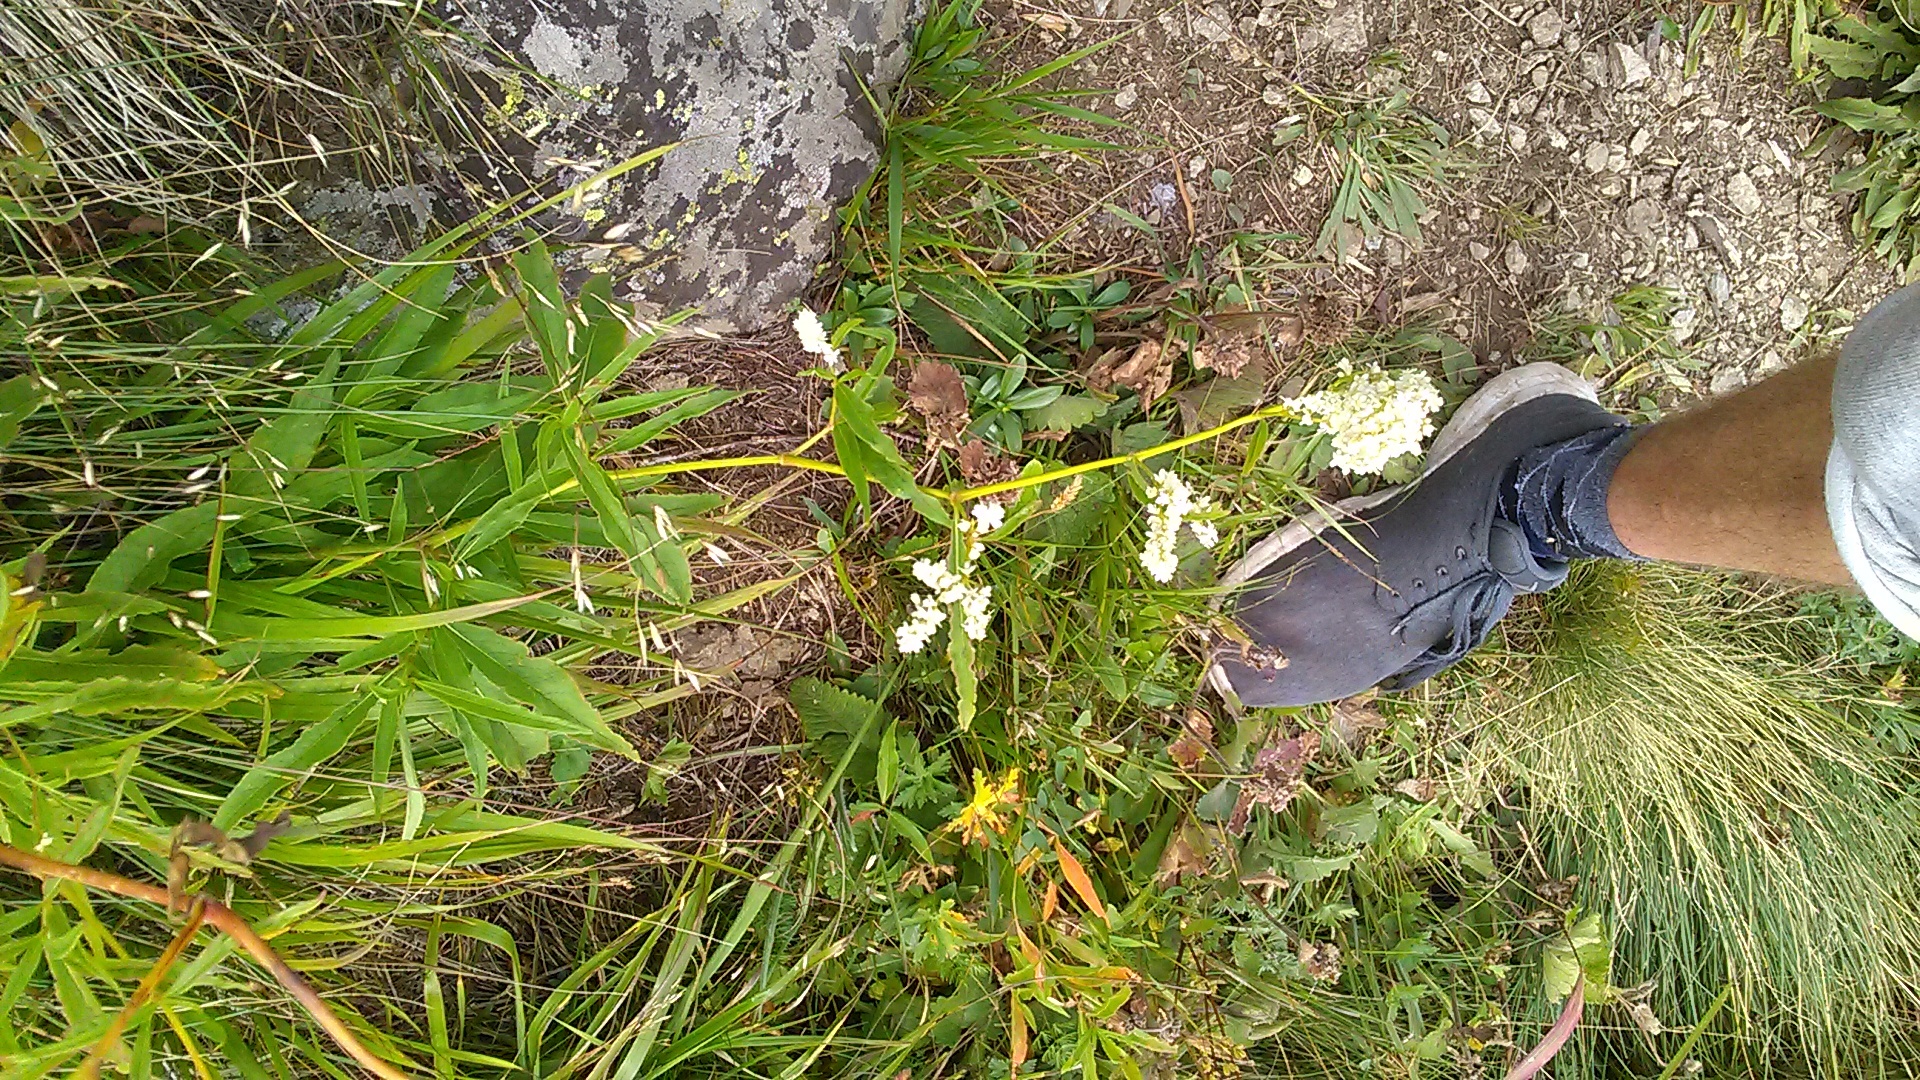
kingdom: Plantae
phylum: Tracheophyta
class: Magnoliopsida
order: Caryophyllales
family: Polygonaceae
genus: Koenigia
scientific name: Koenigia alpina
